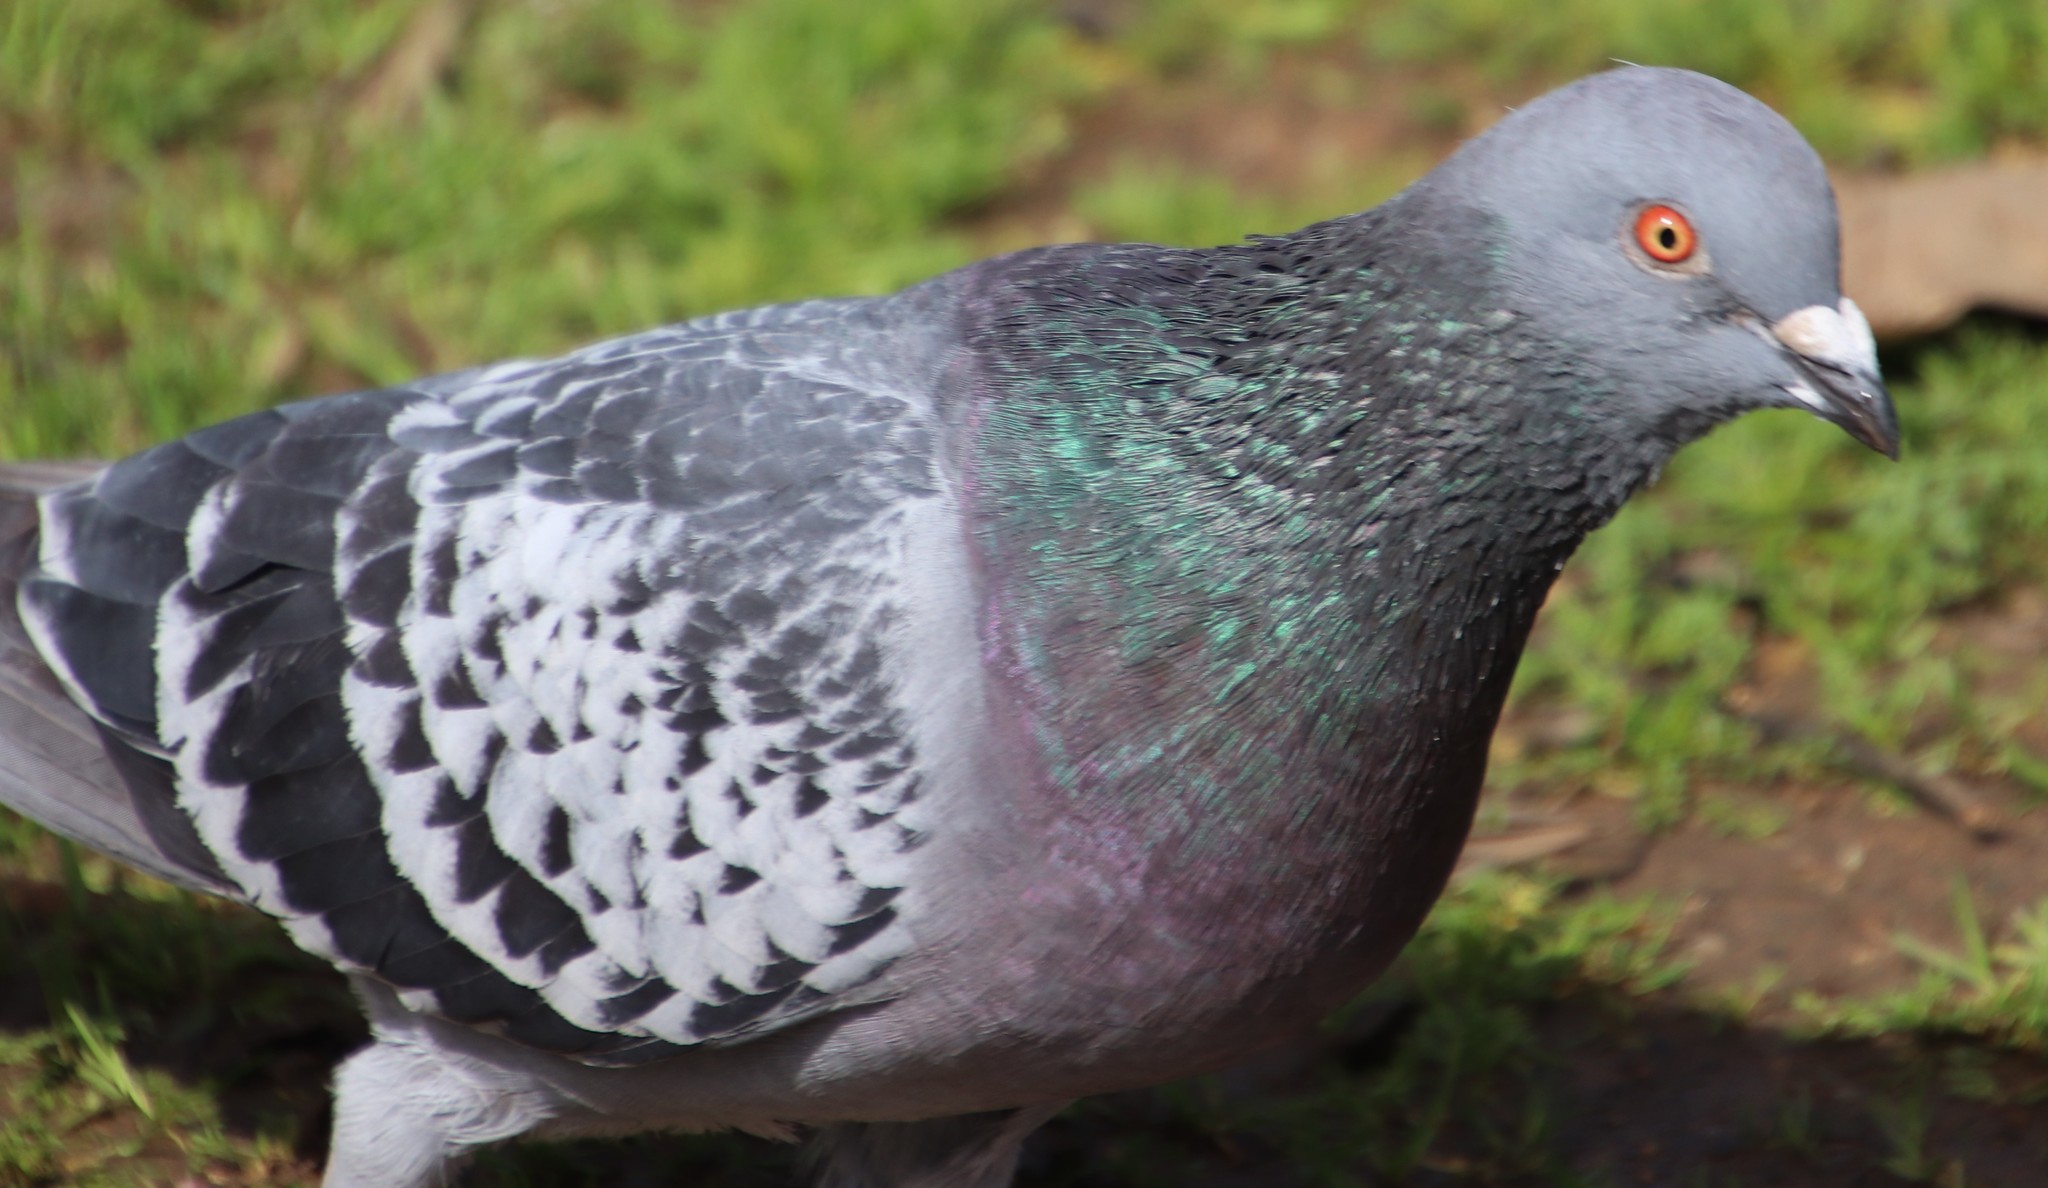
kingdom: Animalia
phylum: Chordata
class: Aves
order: Columbiformes
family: Columbidae
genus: Columba
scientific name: Columba livia
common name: Rock pigeon
